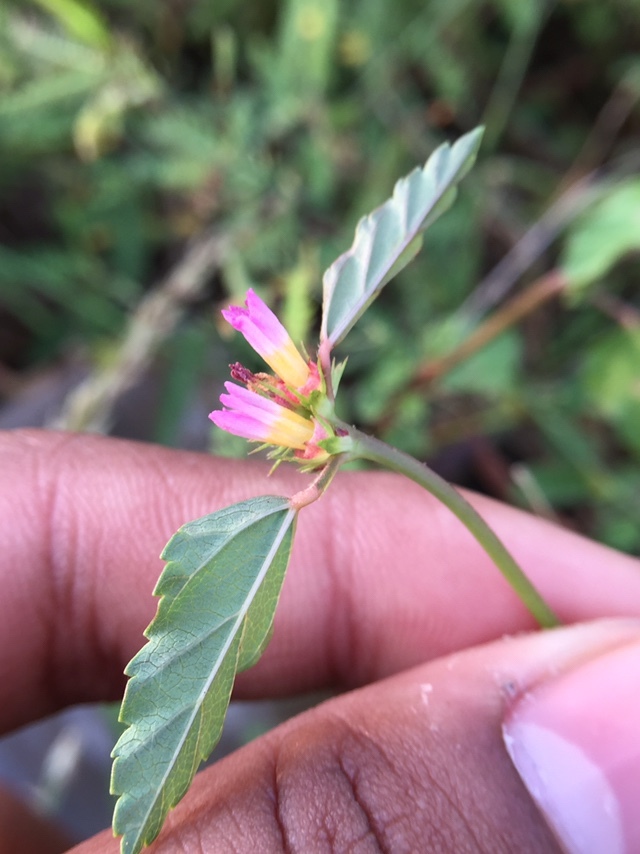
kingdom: Plantae
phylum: Tracheophyta
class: Magnoliopsida
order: Malvales
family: Malvaceae
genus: Melochia
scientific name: Melochia corchorifolia
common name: Chocolateweed
